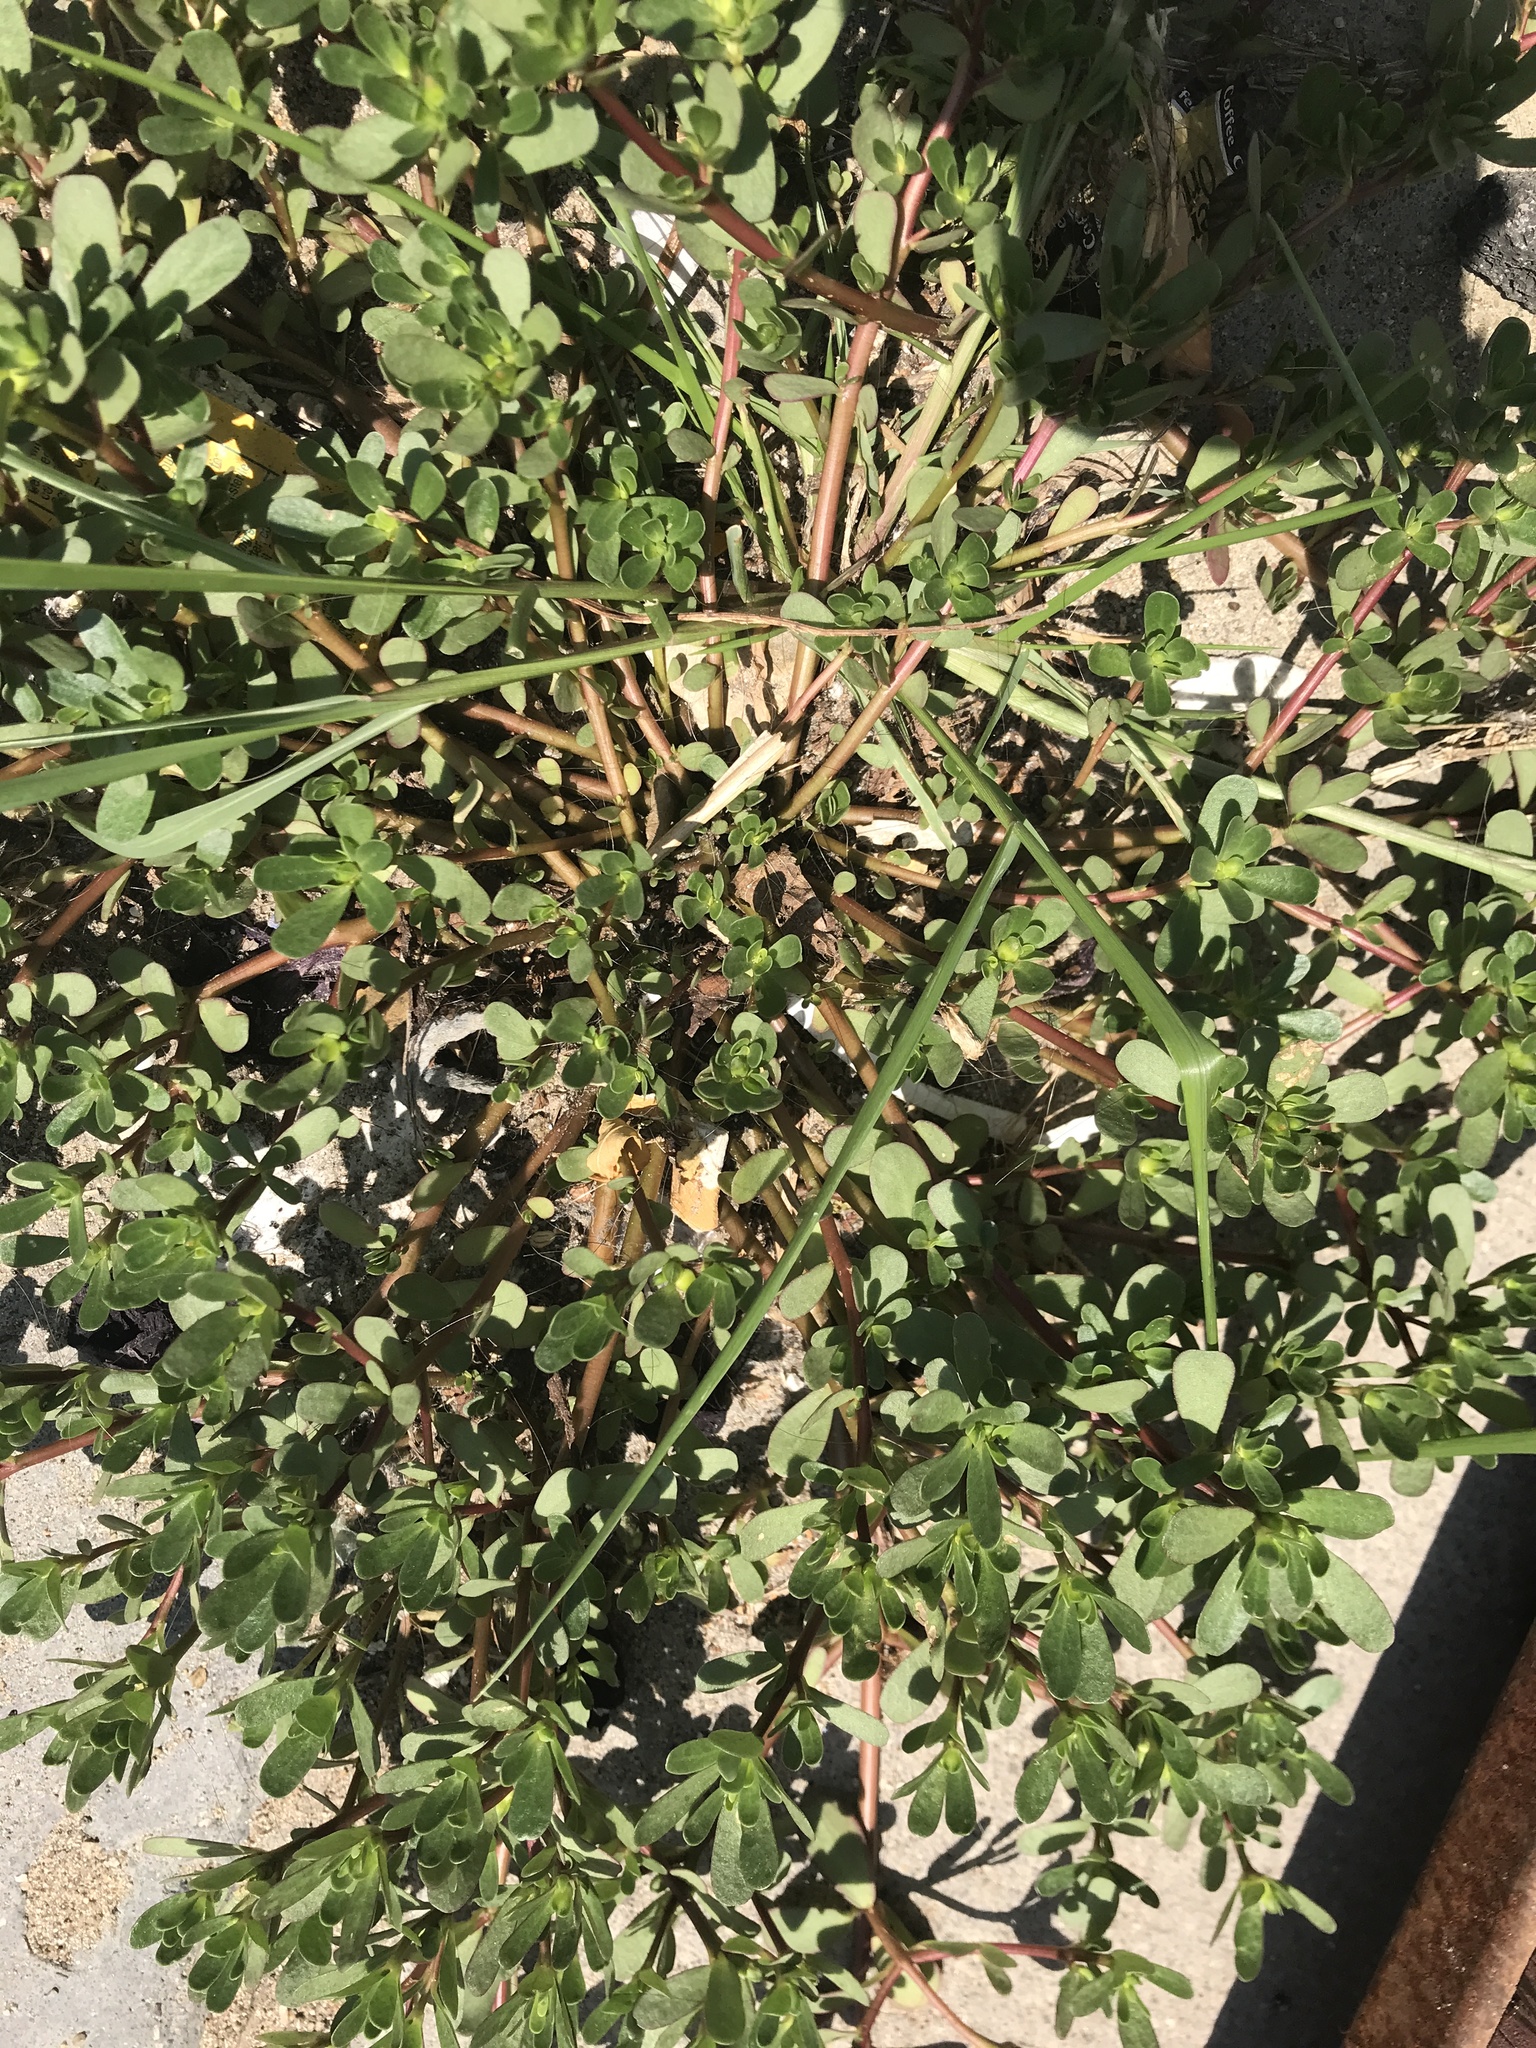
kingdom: Plantae
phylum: Tracheophyta
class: Magnoliopsida
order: Caryophyllales
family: Portulacaceae
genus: Portulaca
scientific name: Portulaca oleracea
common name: Common purslane
